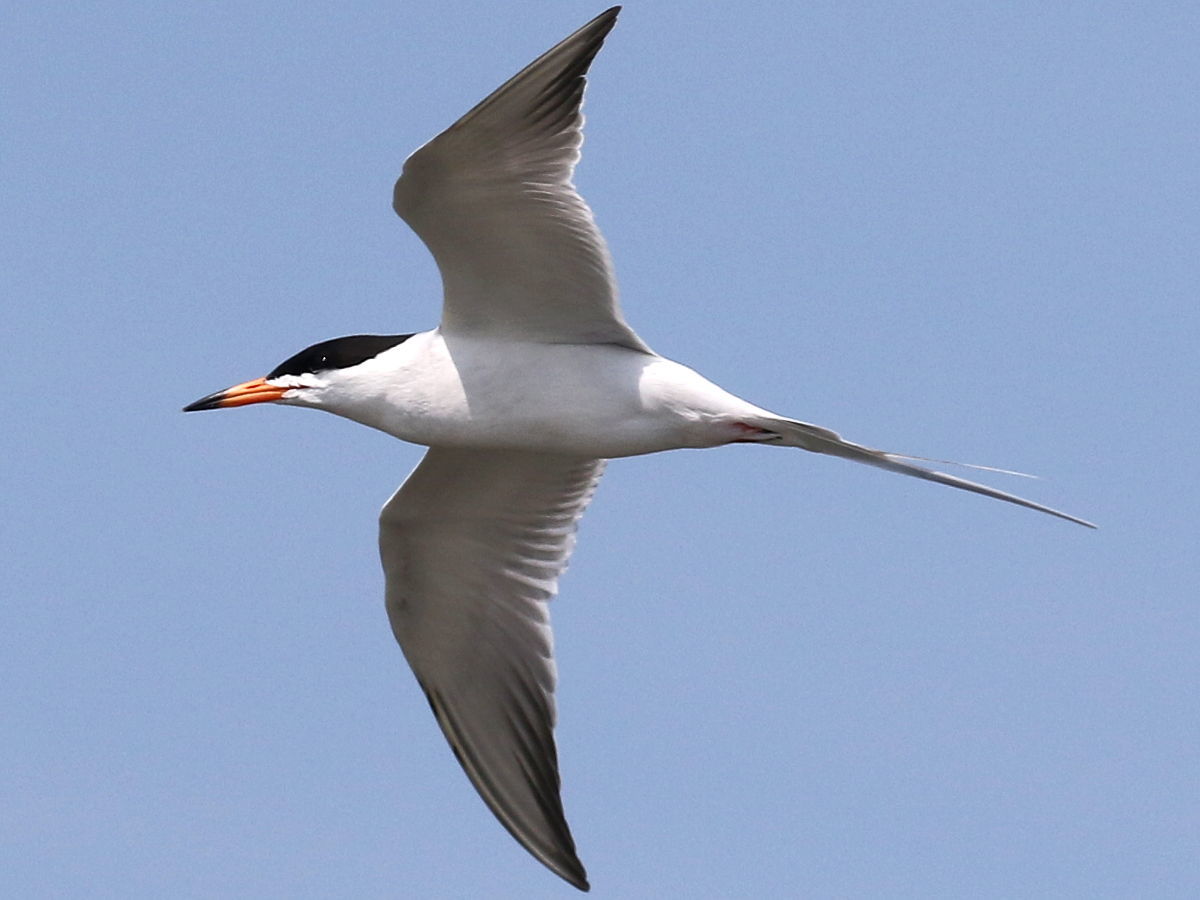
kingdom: Animalia
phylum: Chordata
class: Aves
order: Charadriiformes
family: Laridae
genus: Sterna
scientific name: Sterna forsteri
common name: Forster's tern
